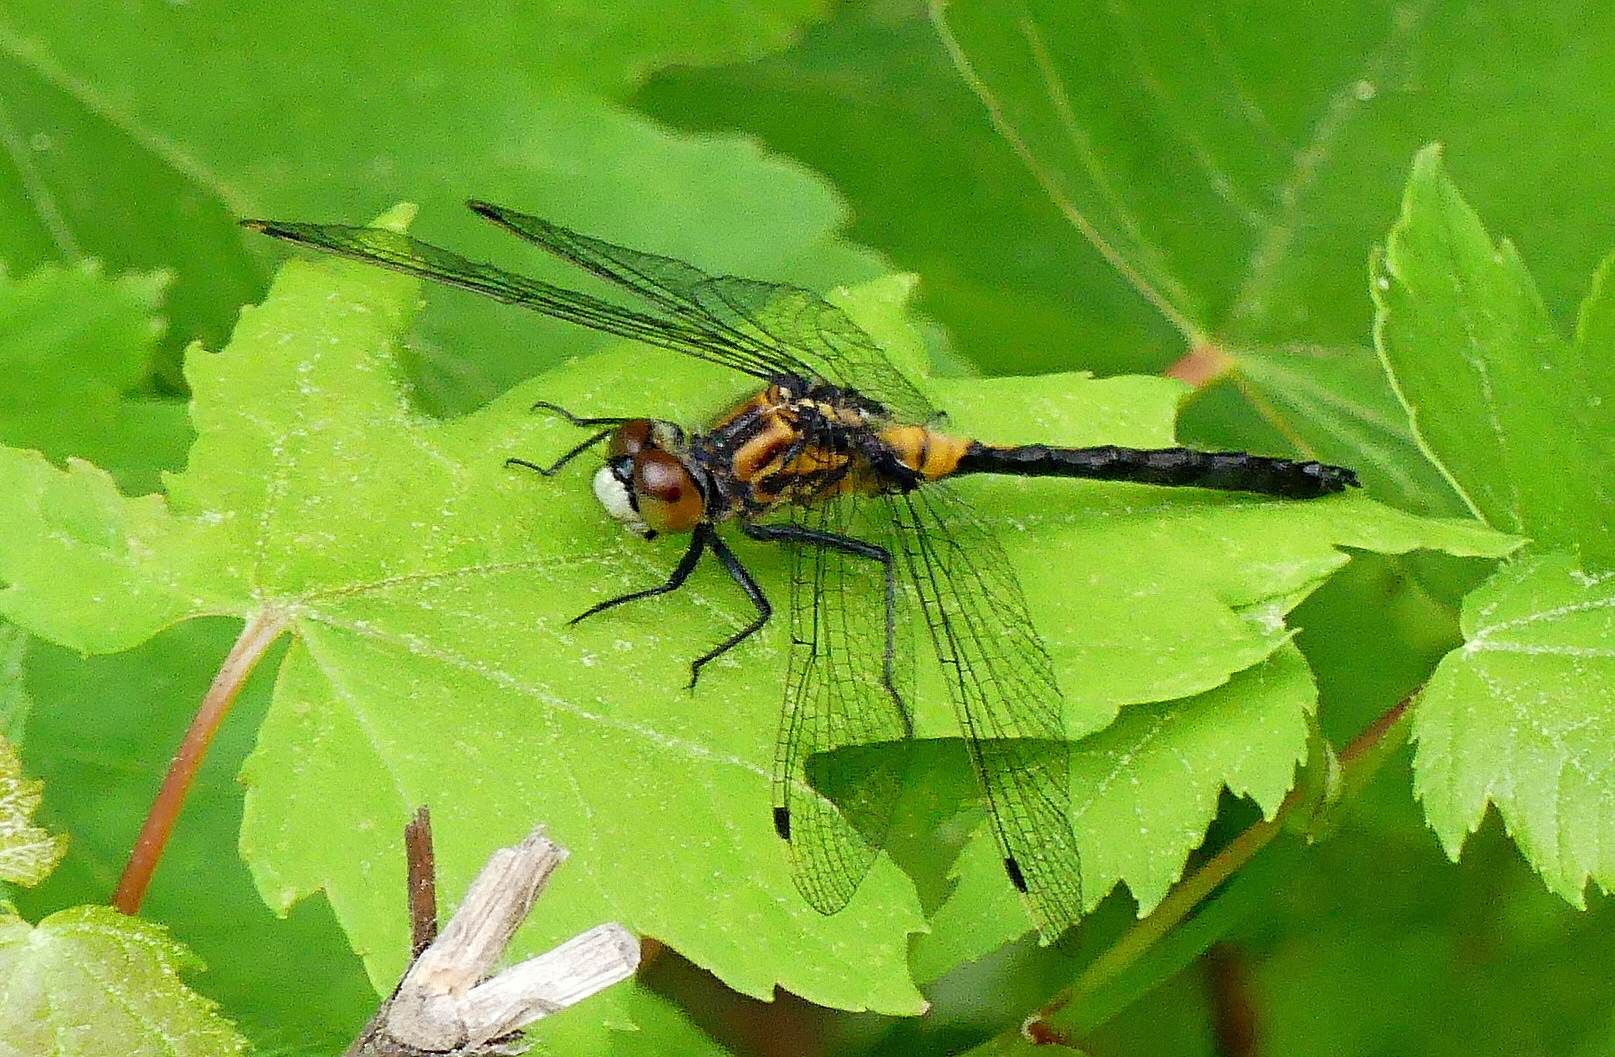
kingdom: Animalia
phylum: Arthropoda
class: Insecta
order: Odonata
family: Libellulidae
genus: Leucorrhinia
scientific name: Leucorrhinia proxima
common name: Belted whiteface
